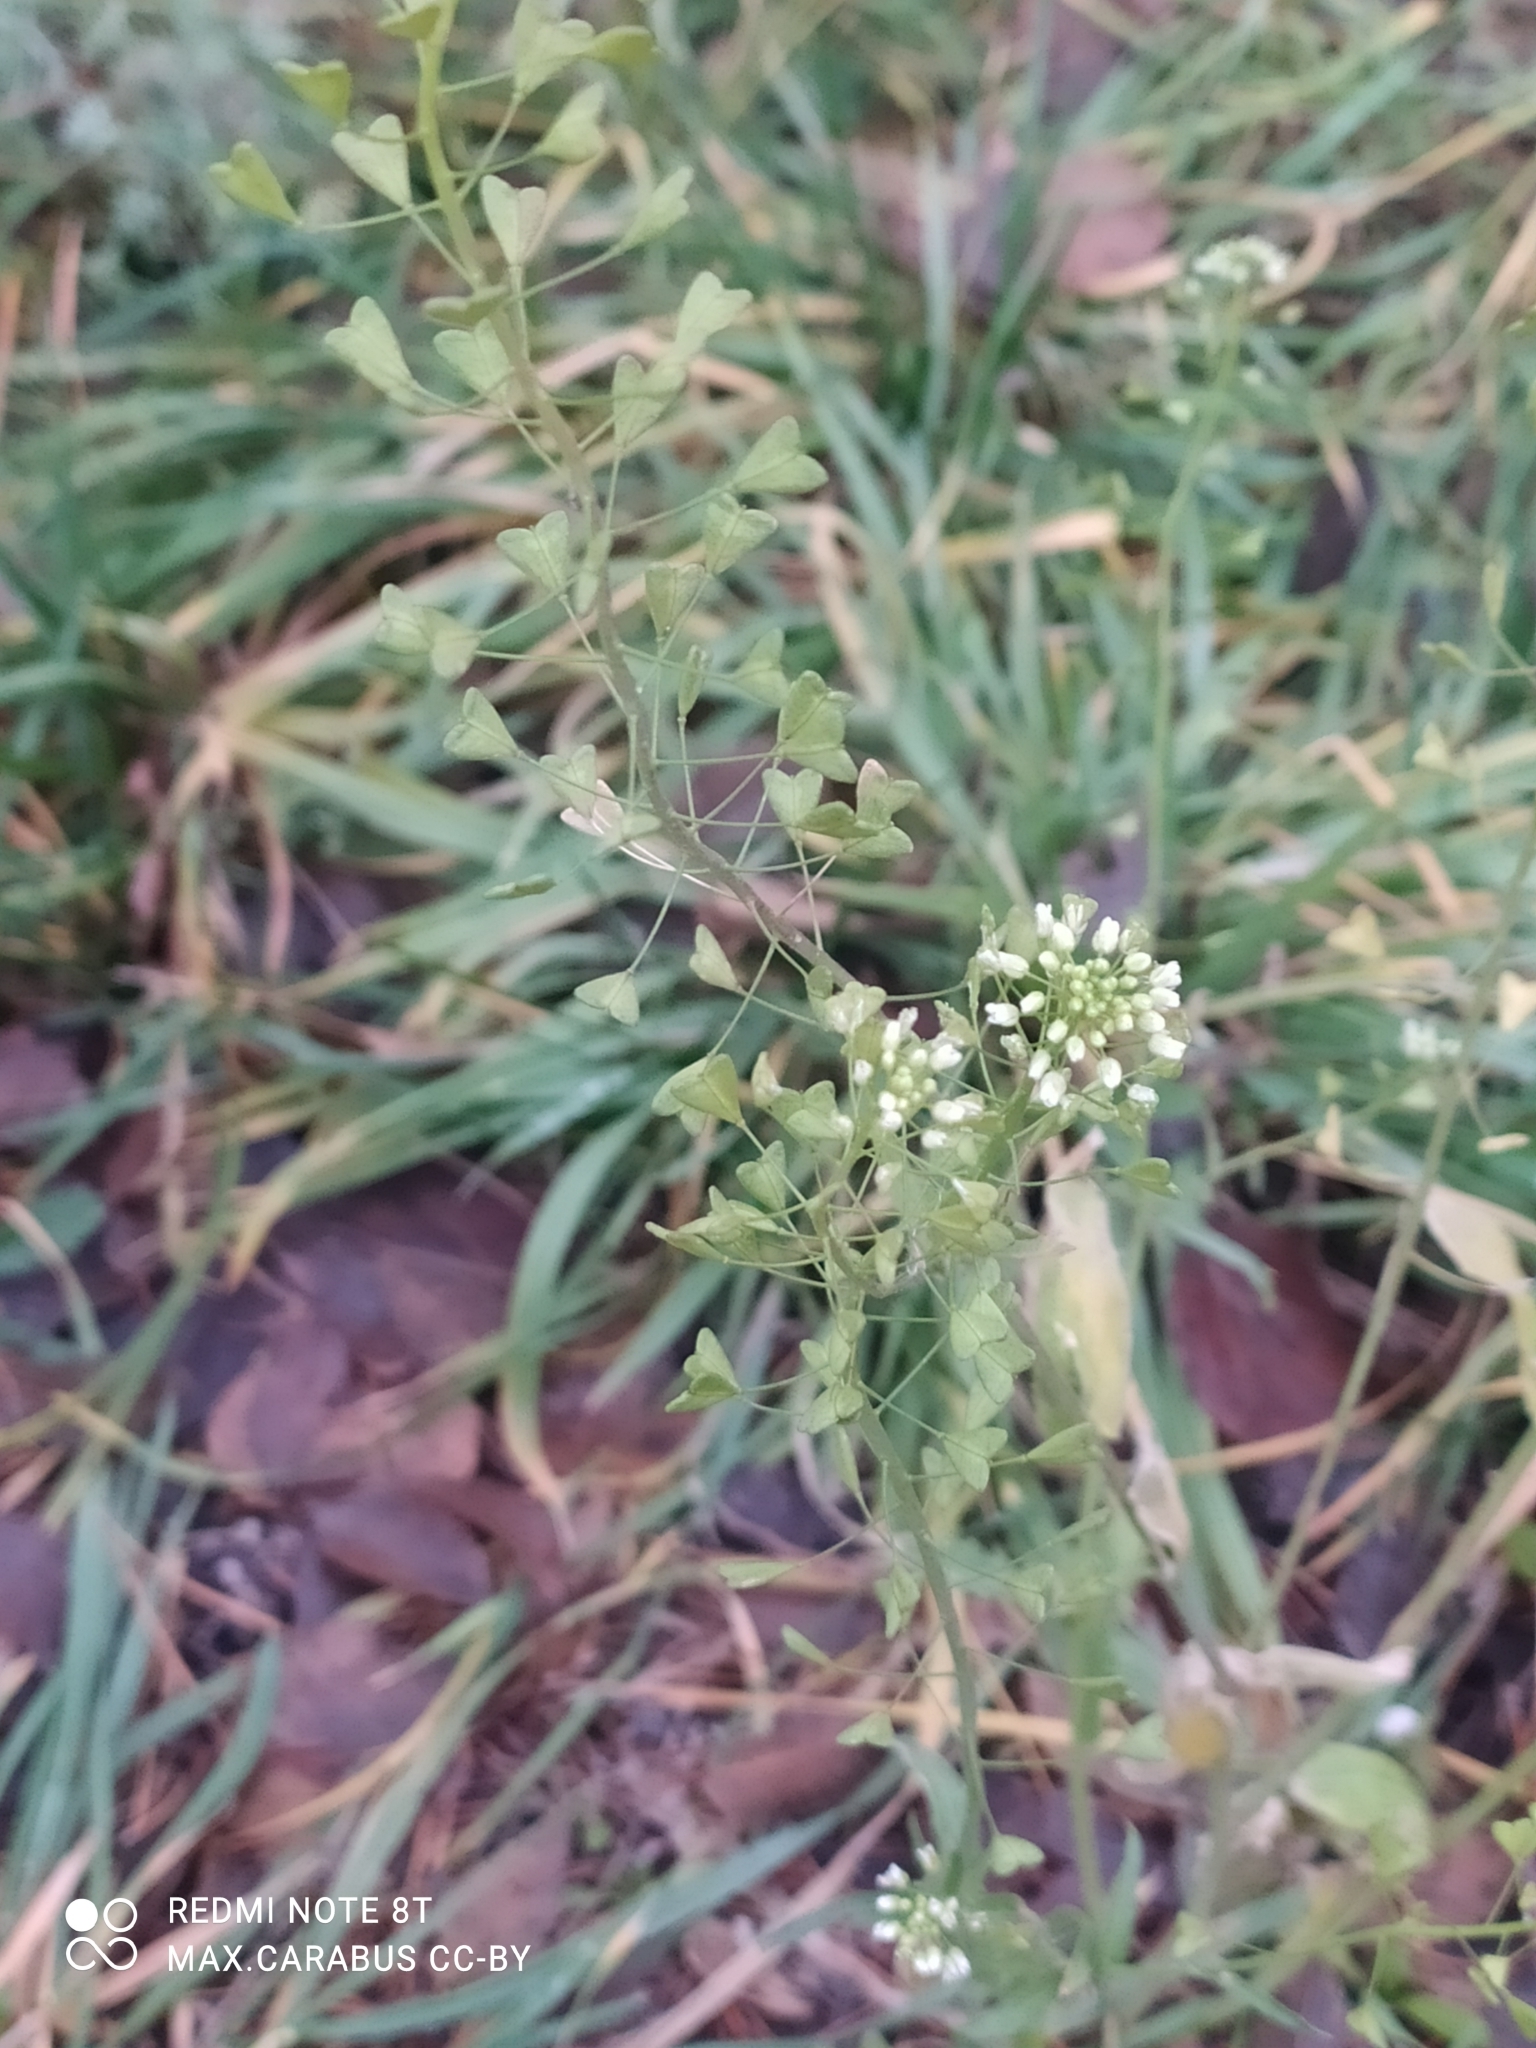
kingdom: Plantae
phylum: Tracheophyta
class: Magnoliopsida
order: Brassicales
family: Brassicaceae
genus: Capsella
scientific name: Capsella bursa-pastoris
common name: Shepherd's purse
